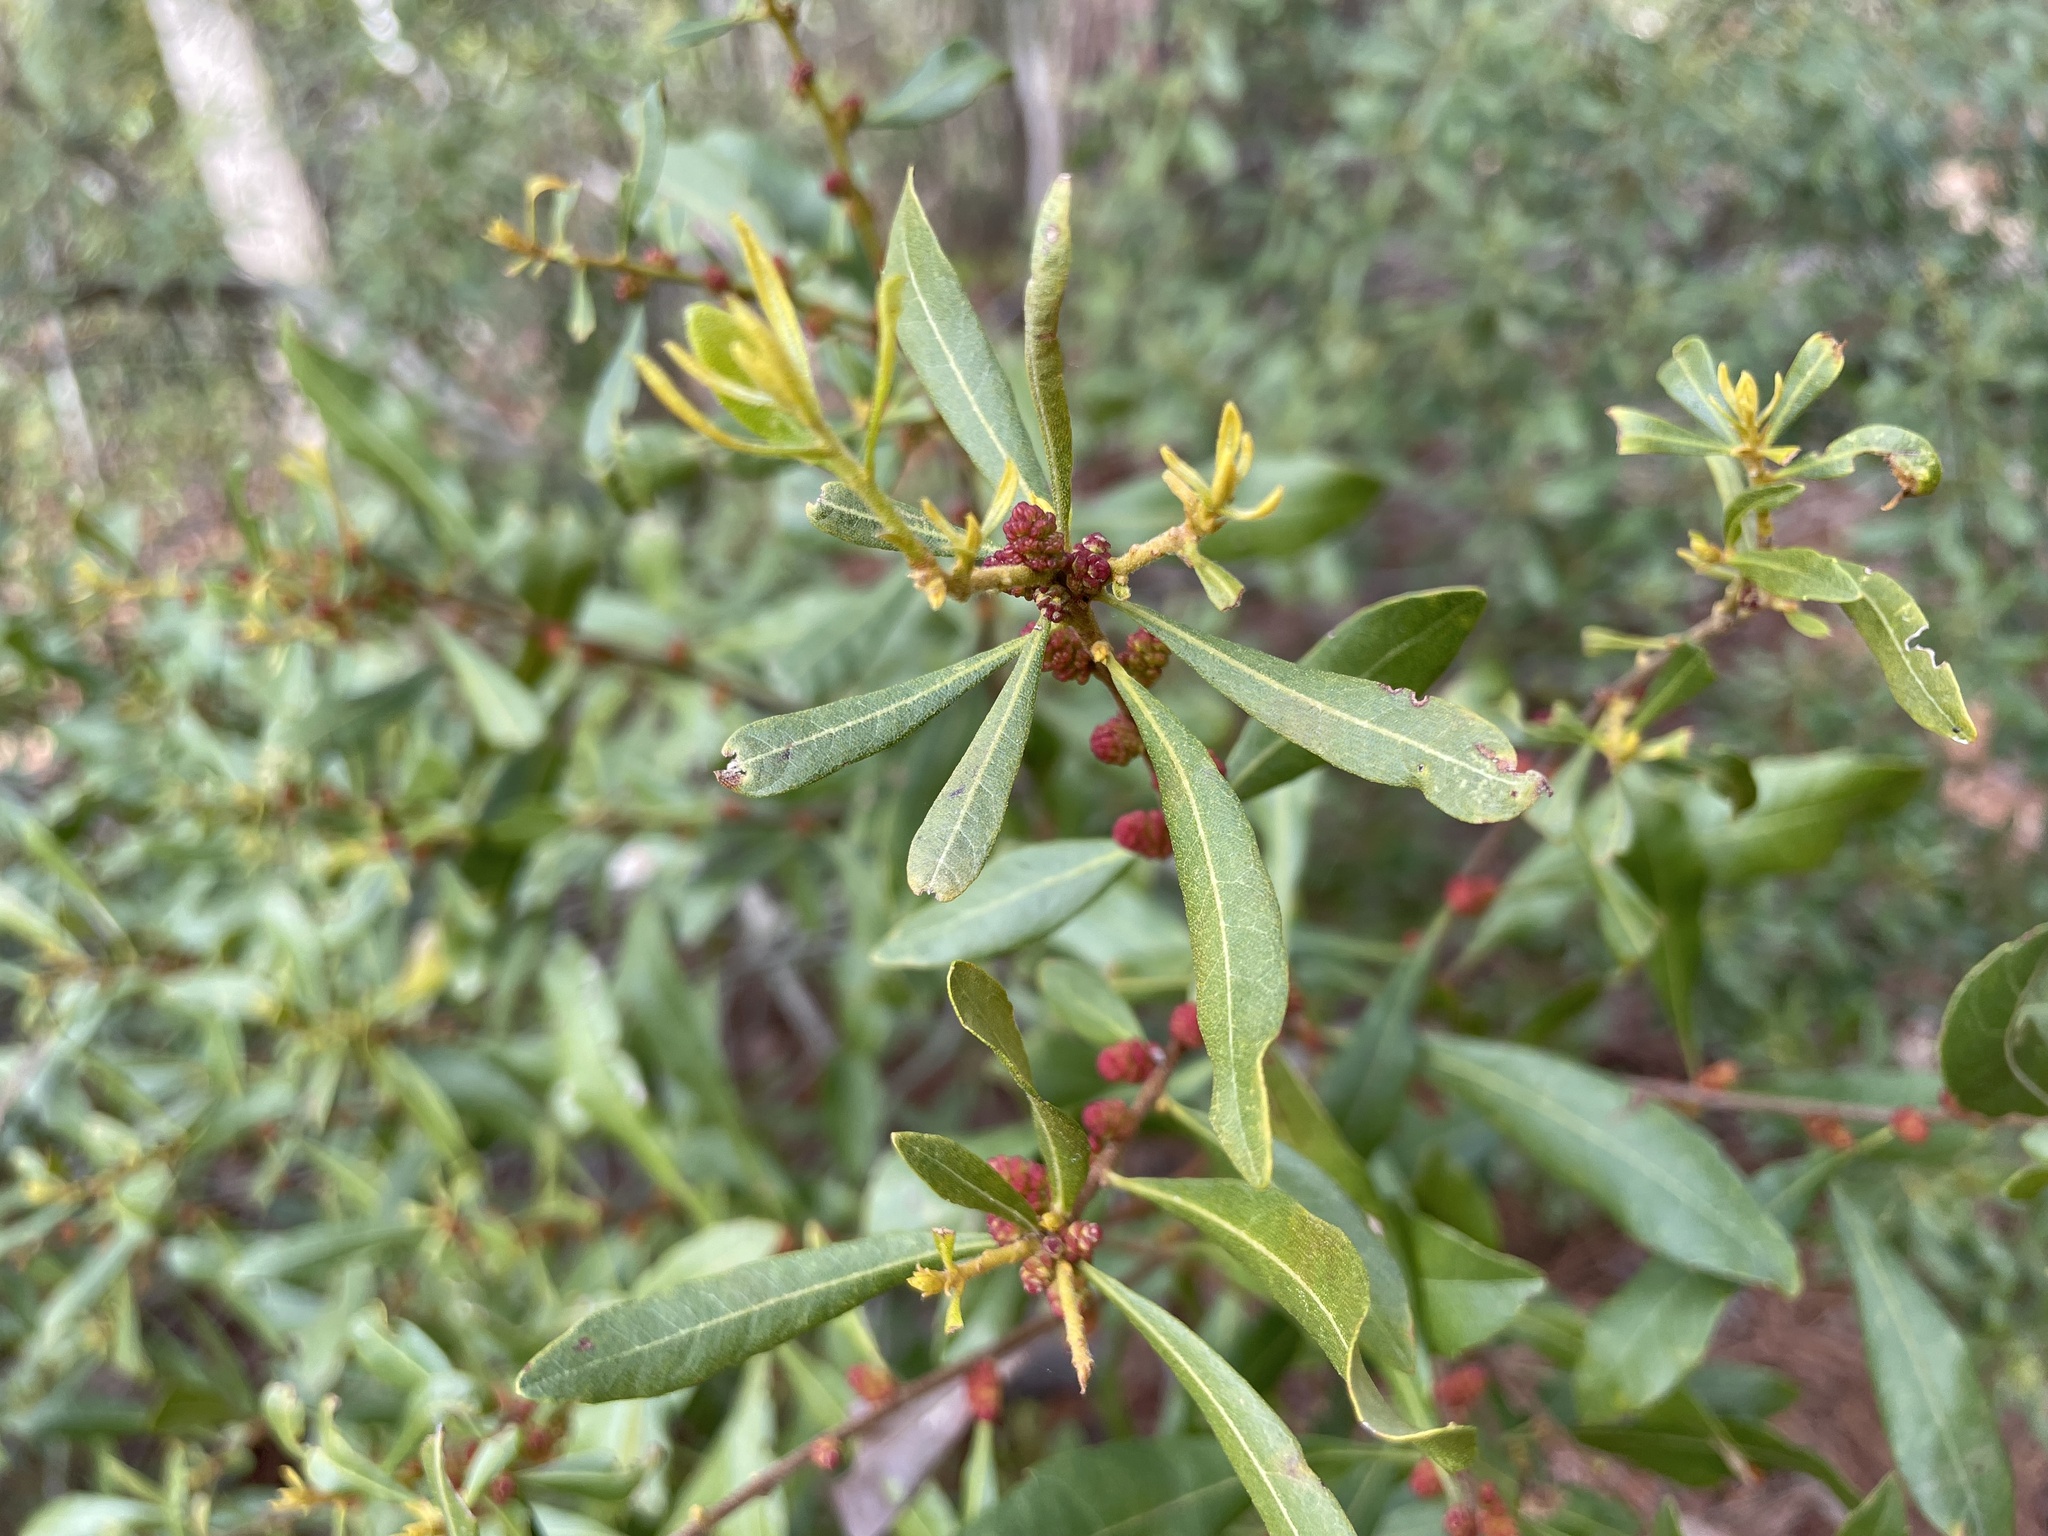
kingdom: Plantae
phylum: Tracheophyta
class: Magnoliopsida
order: Fagales
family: Myricaceae
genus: Morella
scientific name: Morella cerifera
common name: Wax myrtle
